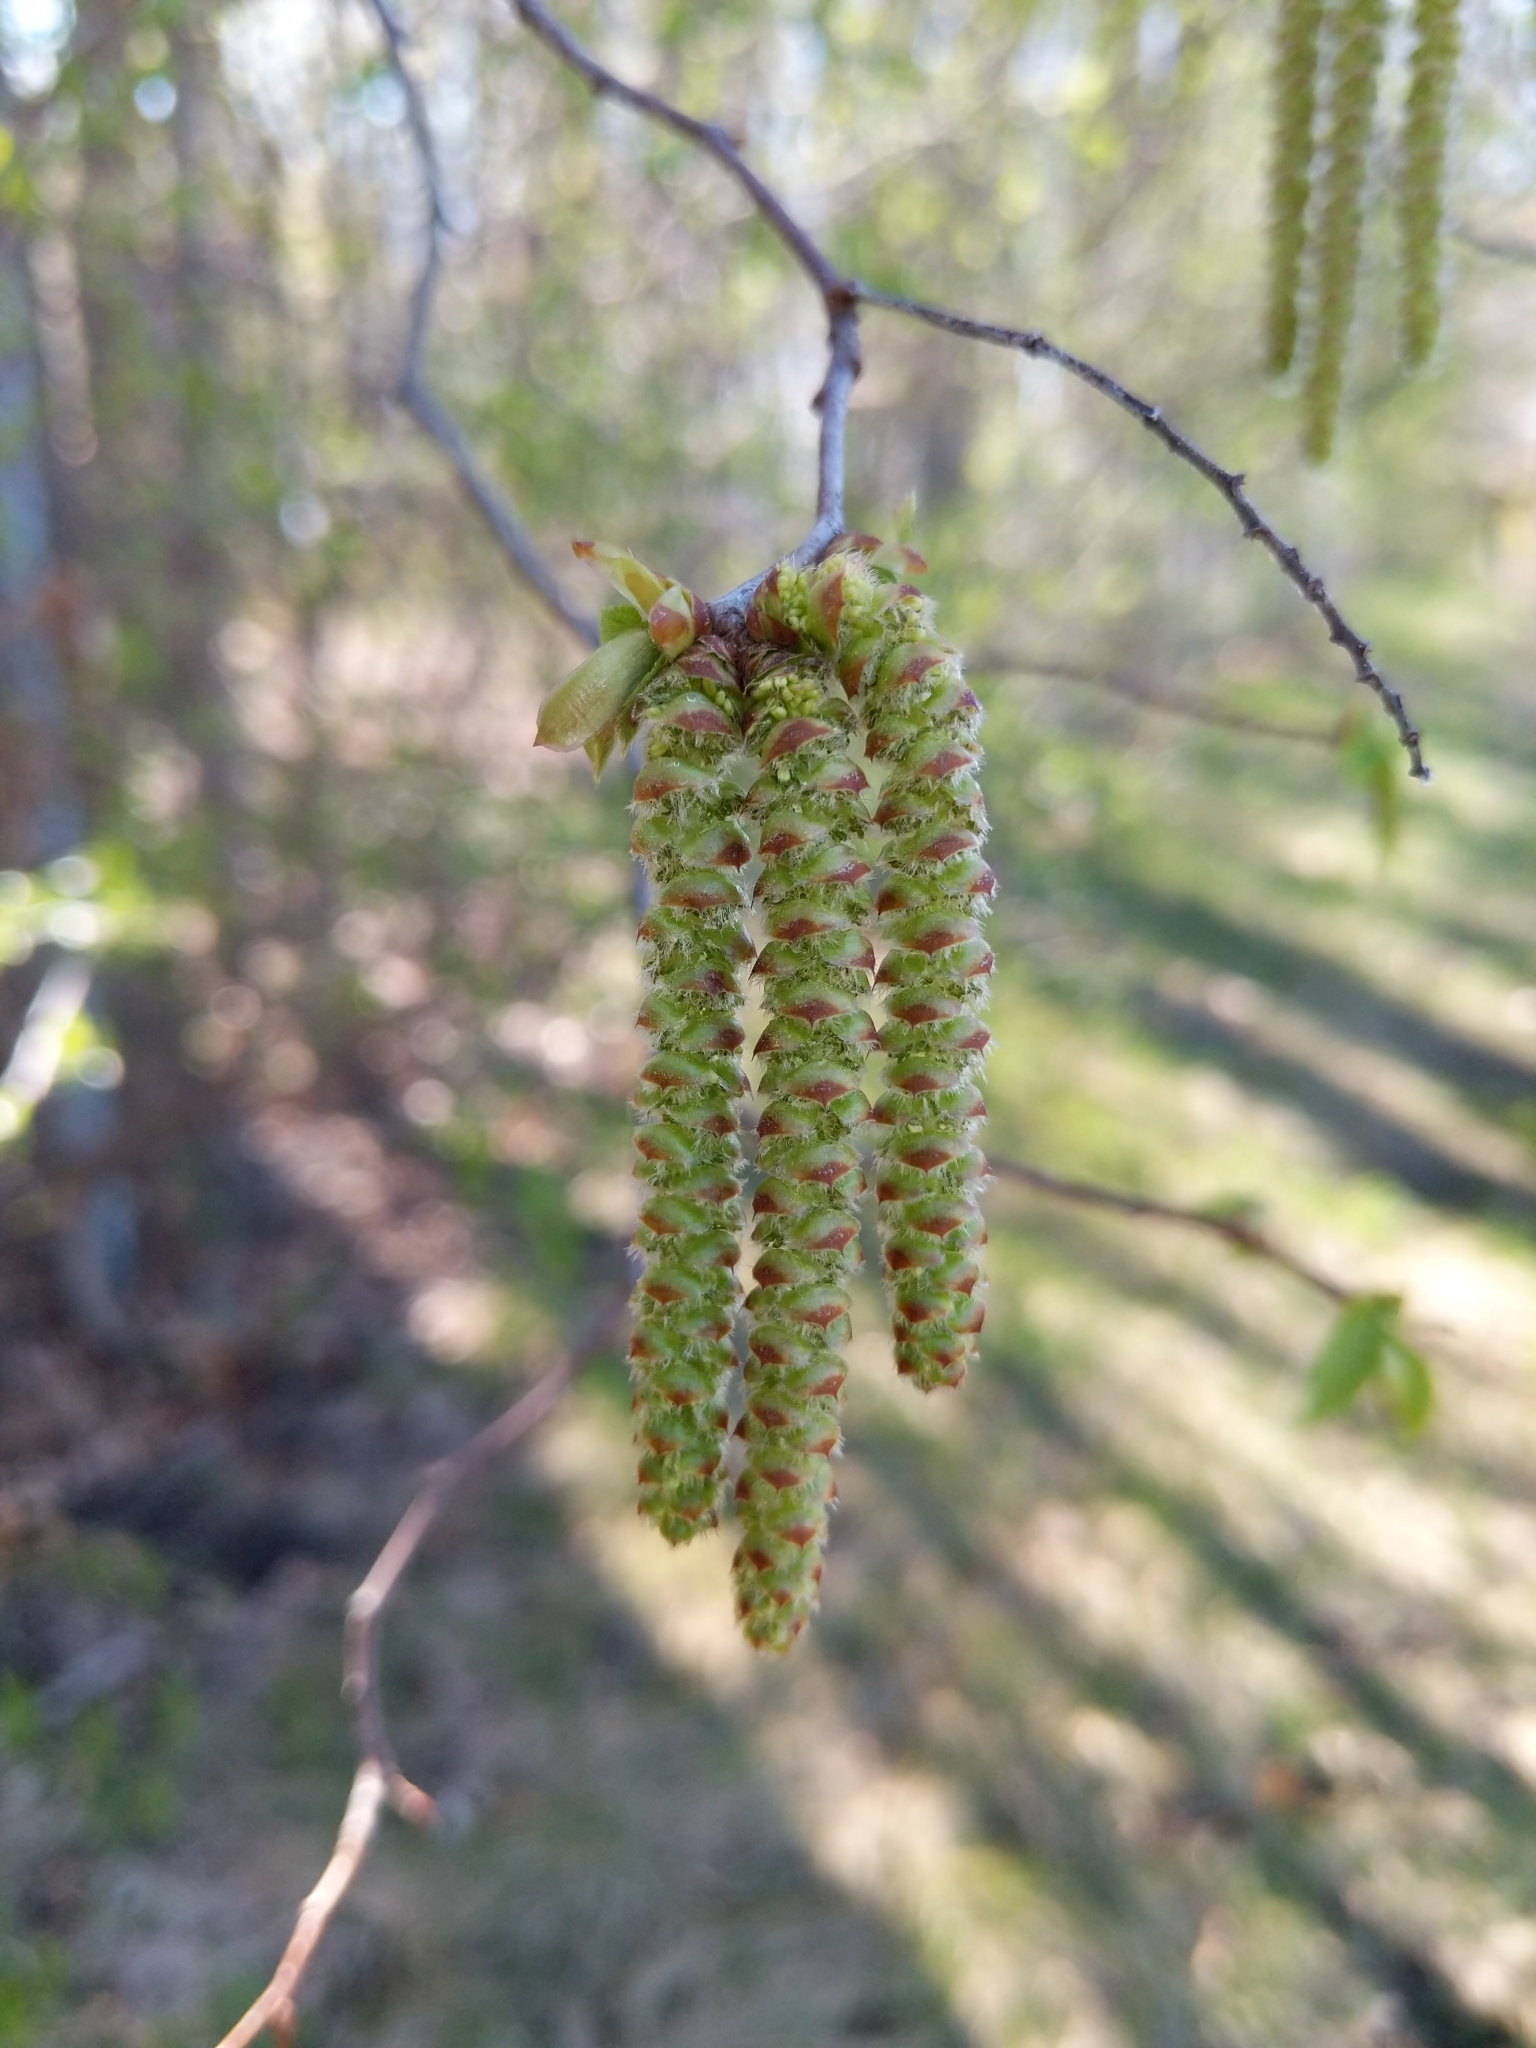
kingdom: Plantae
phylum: Tracheophyta
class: Magnoliopsida
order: Fagales
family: Betulaceae
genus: Ostrya
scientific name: Ostrya virginiana
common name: Ironwood
